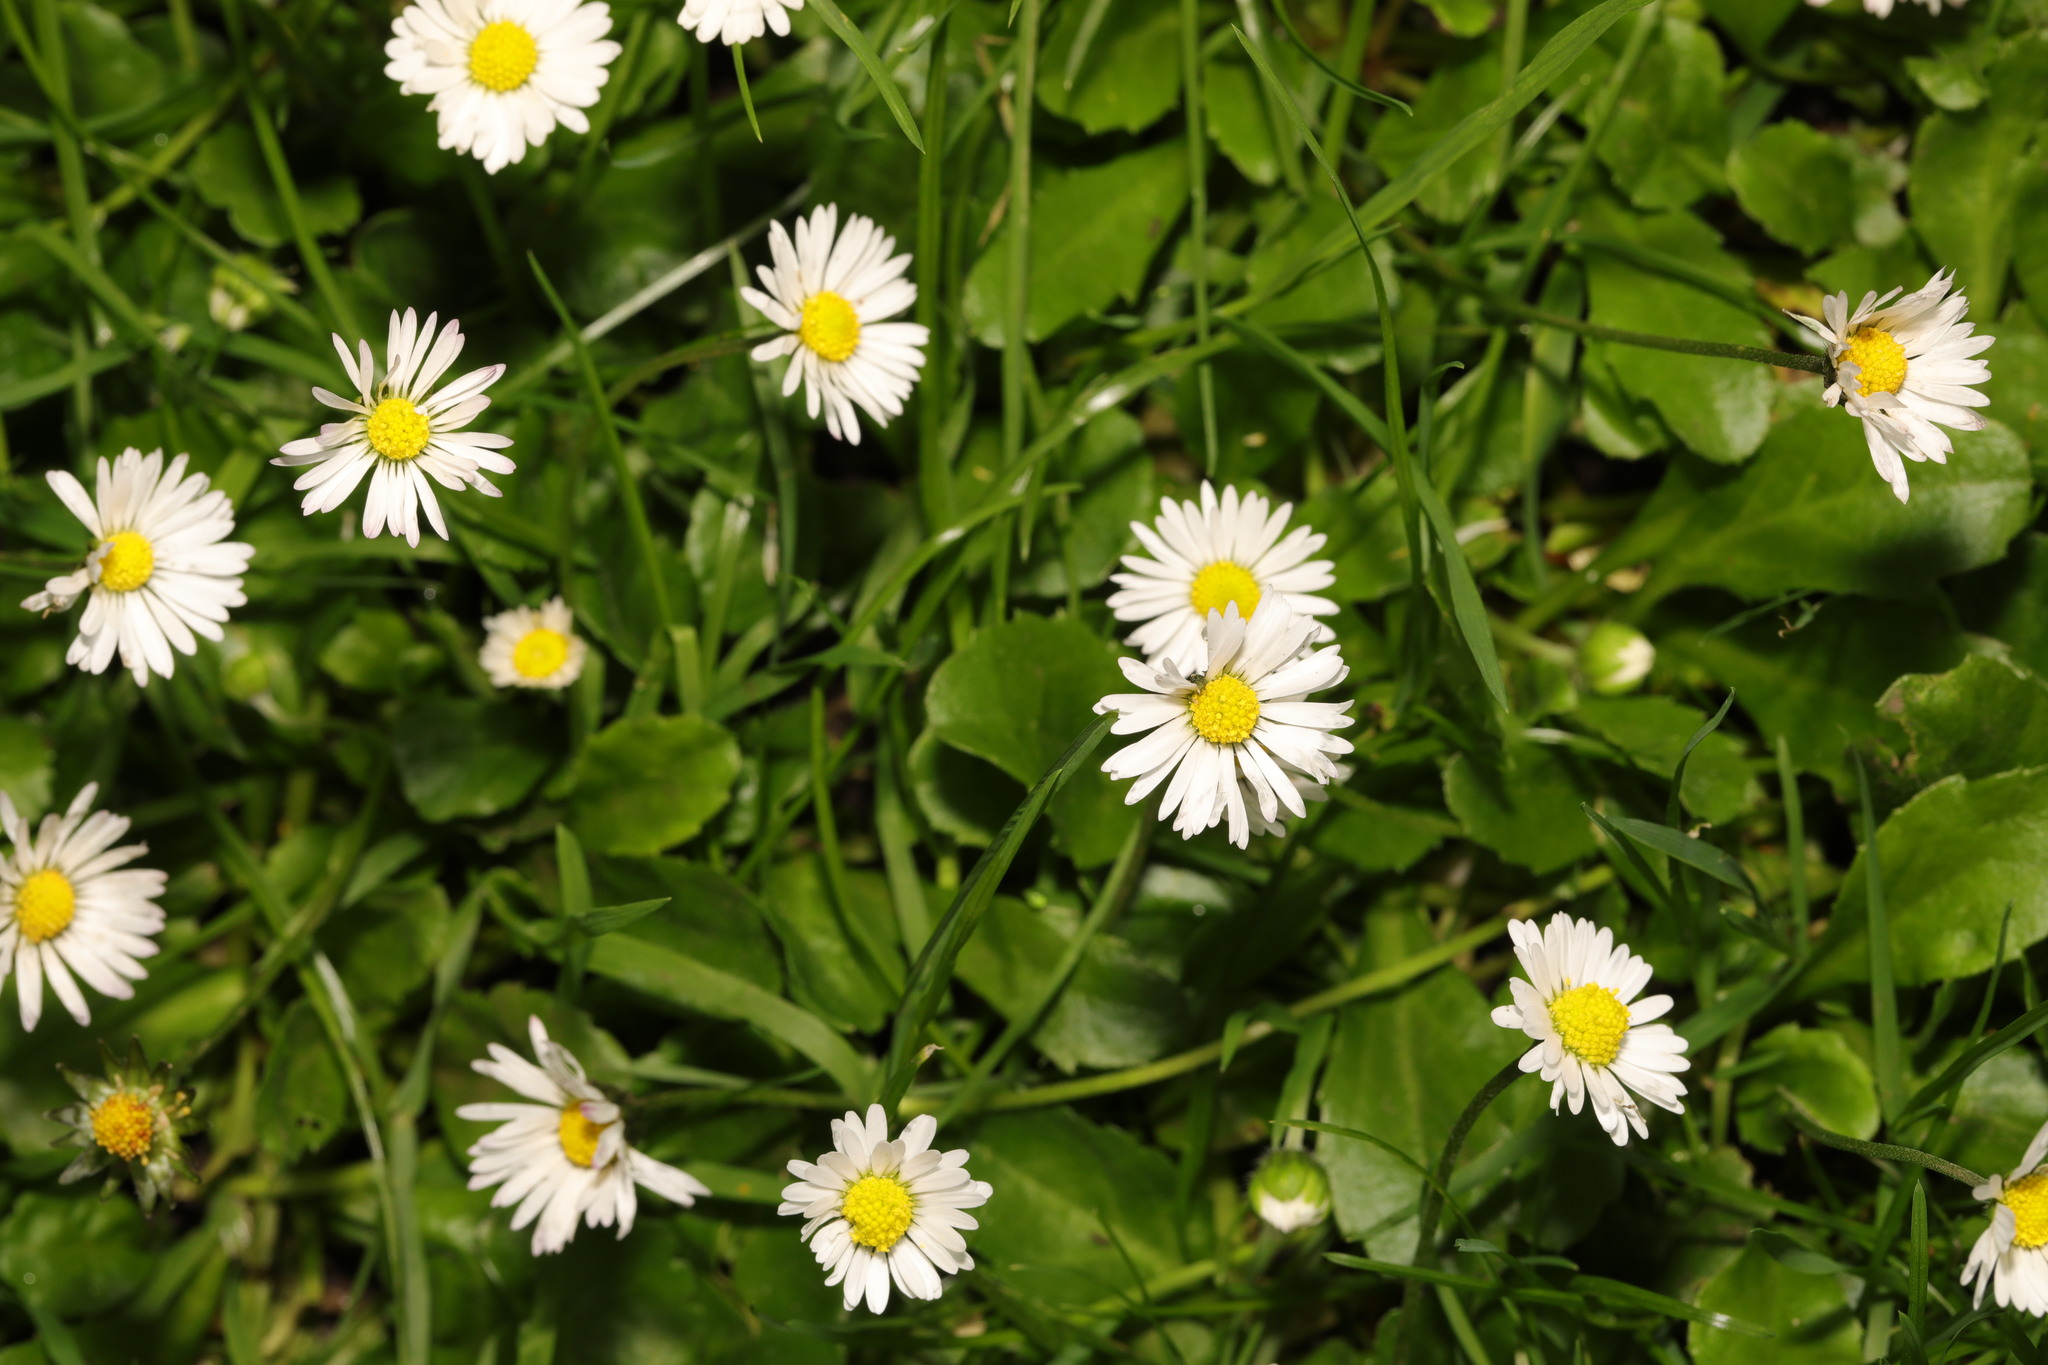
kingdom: Plantae
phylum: Tracheophyta
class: Magnoliopsida
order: Asterales
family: Asteraceae
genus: Bellis
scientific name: Bellis perennis
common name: Lawndaisy
